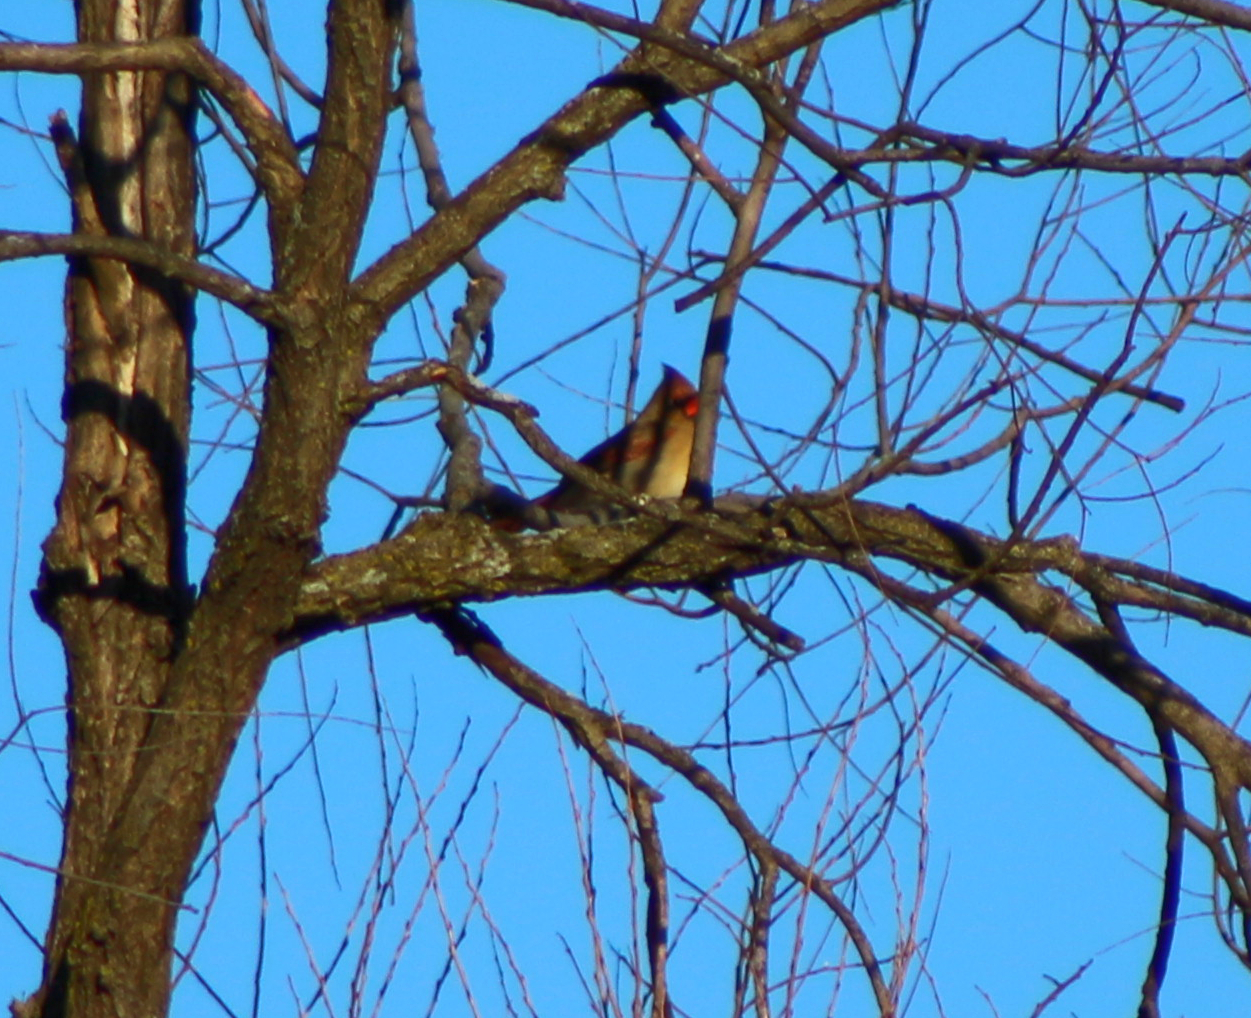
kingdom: Animalia
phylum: Chordata
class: Aves
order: Passeriformes
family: Cardinalidae
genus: Cardinalis
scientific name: Cardinalis cardinalis
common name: Northern cardinal
